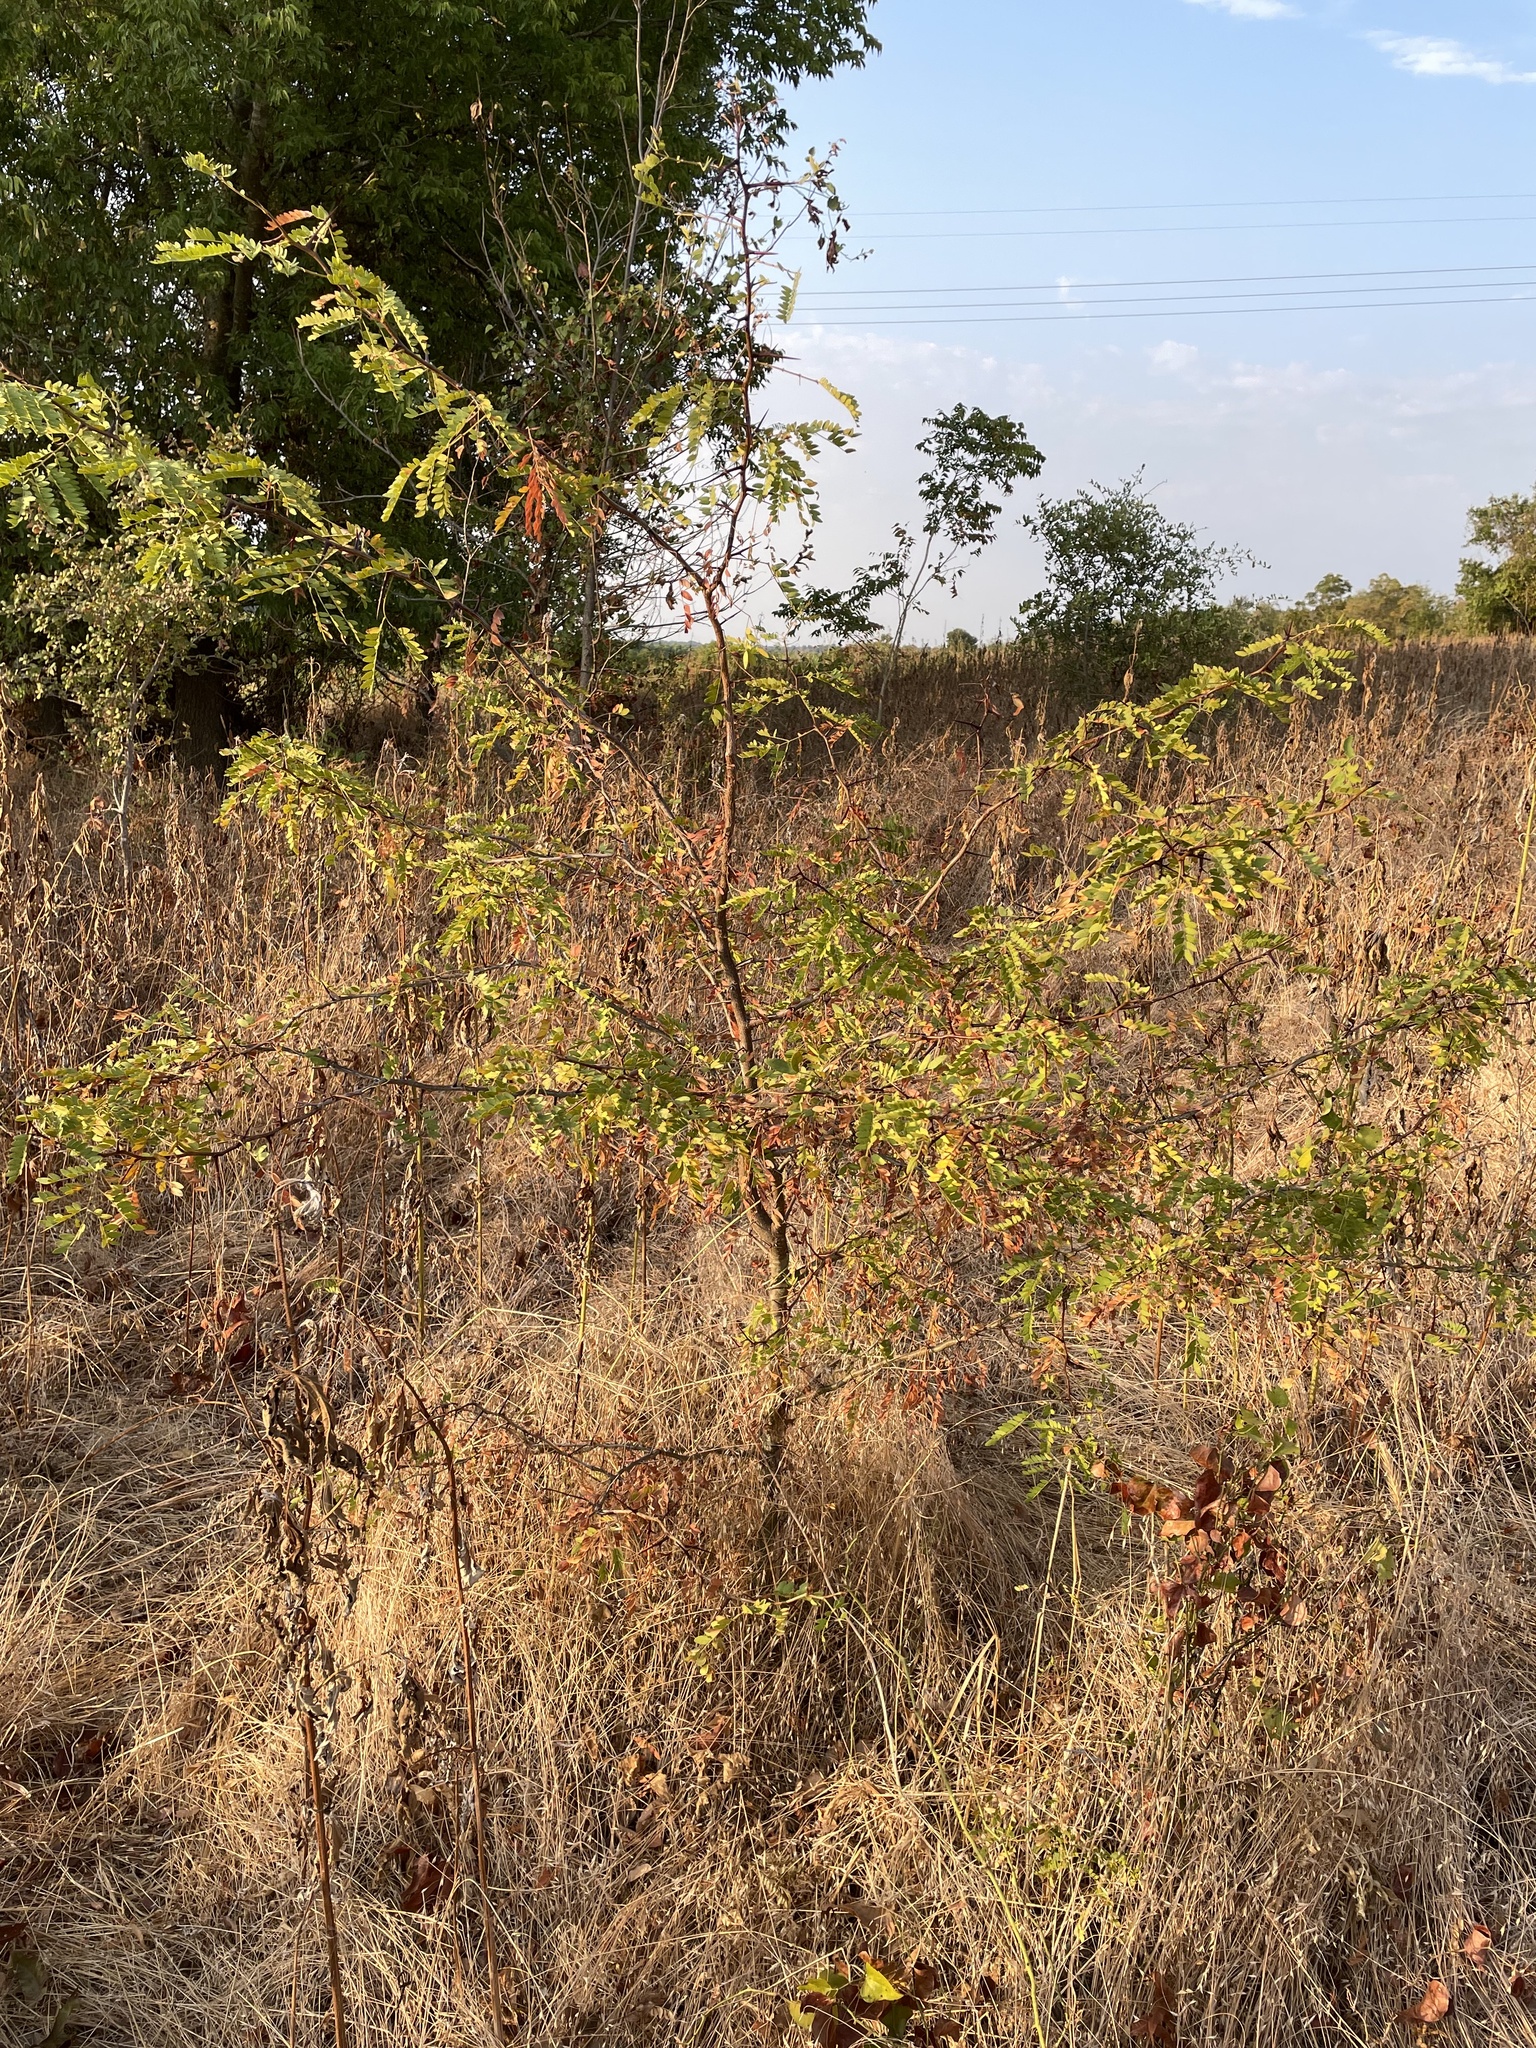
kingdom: Plantae
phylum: Tracheophyta
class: Magnoliopsida
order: Fabales
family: Fabaceae
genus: Gleditsia
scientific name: Gleditsia triacanthos
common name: Common honeylocust
